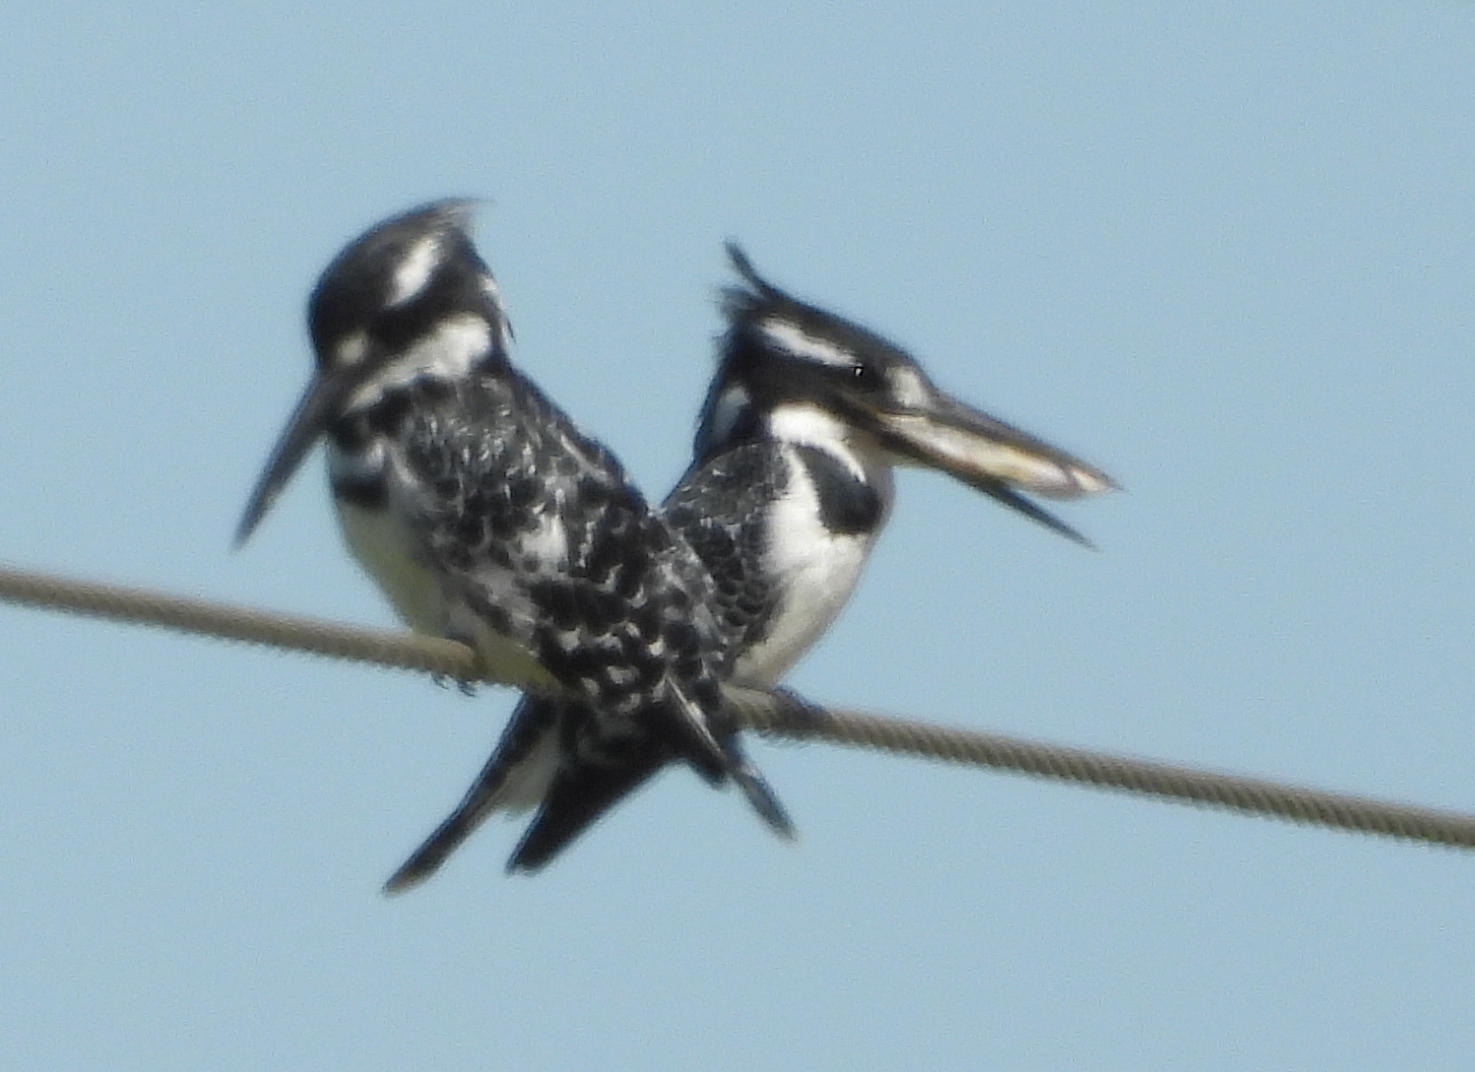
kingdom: Animalia
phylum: Chordata
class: Aves
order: Coraciiformes
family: Alcedinidae
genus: Ceryle
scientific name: Ceryle rudis
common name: Pied kingfisher
